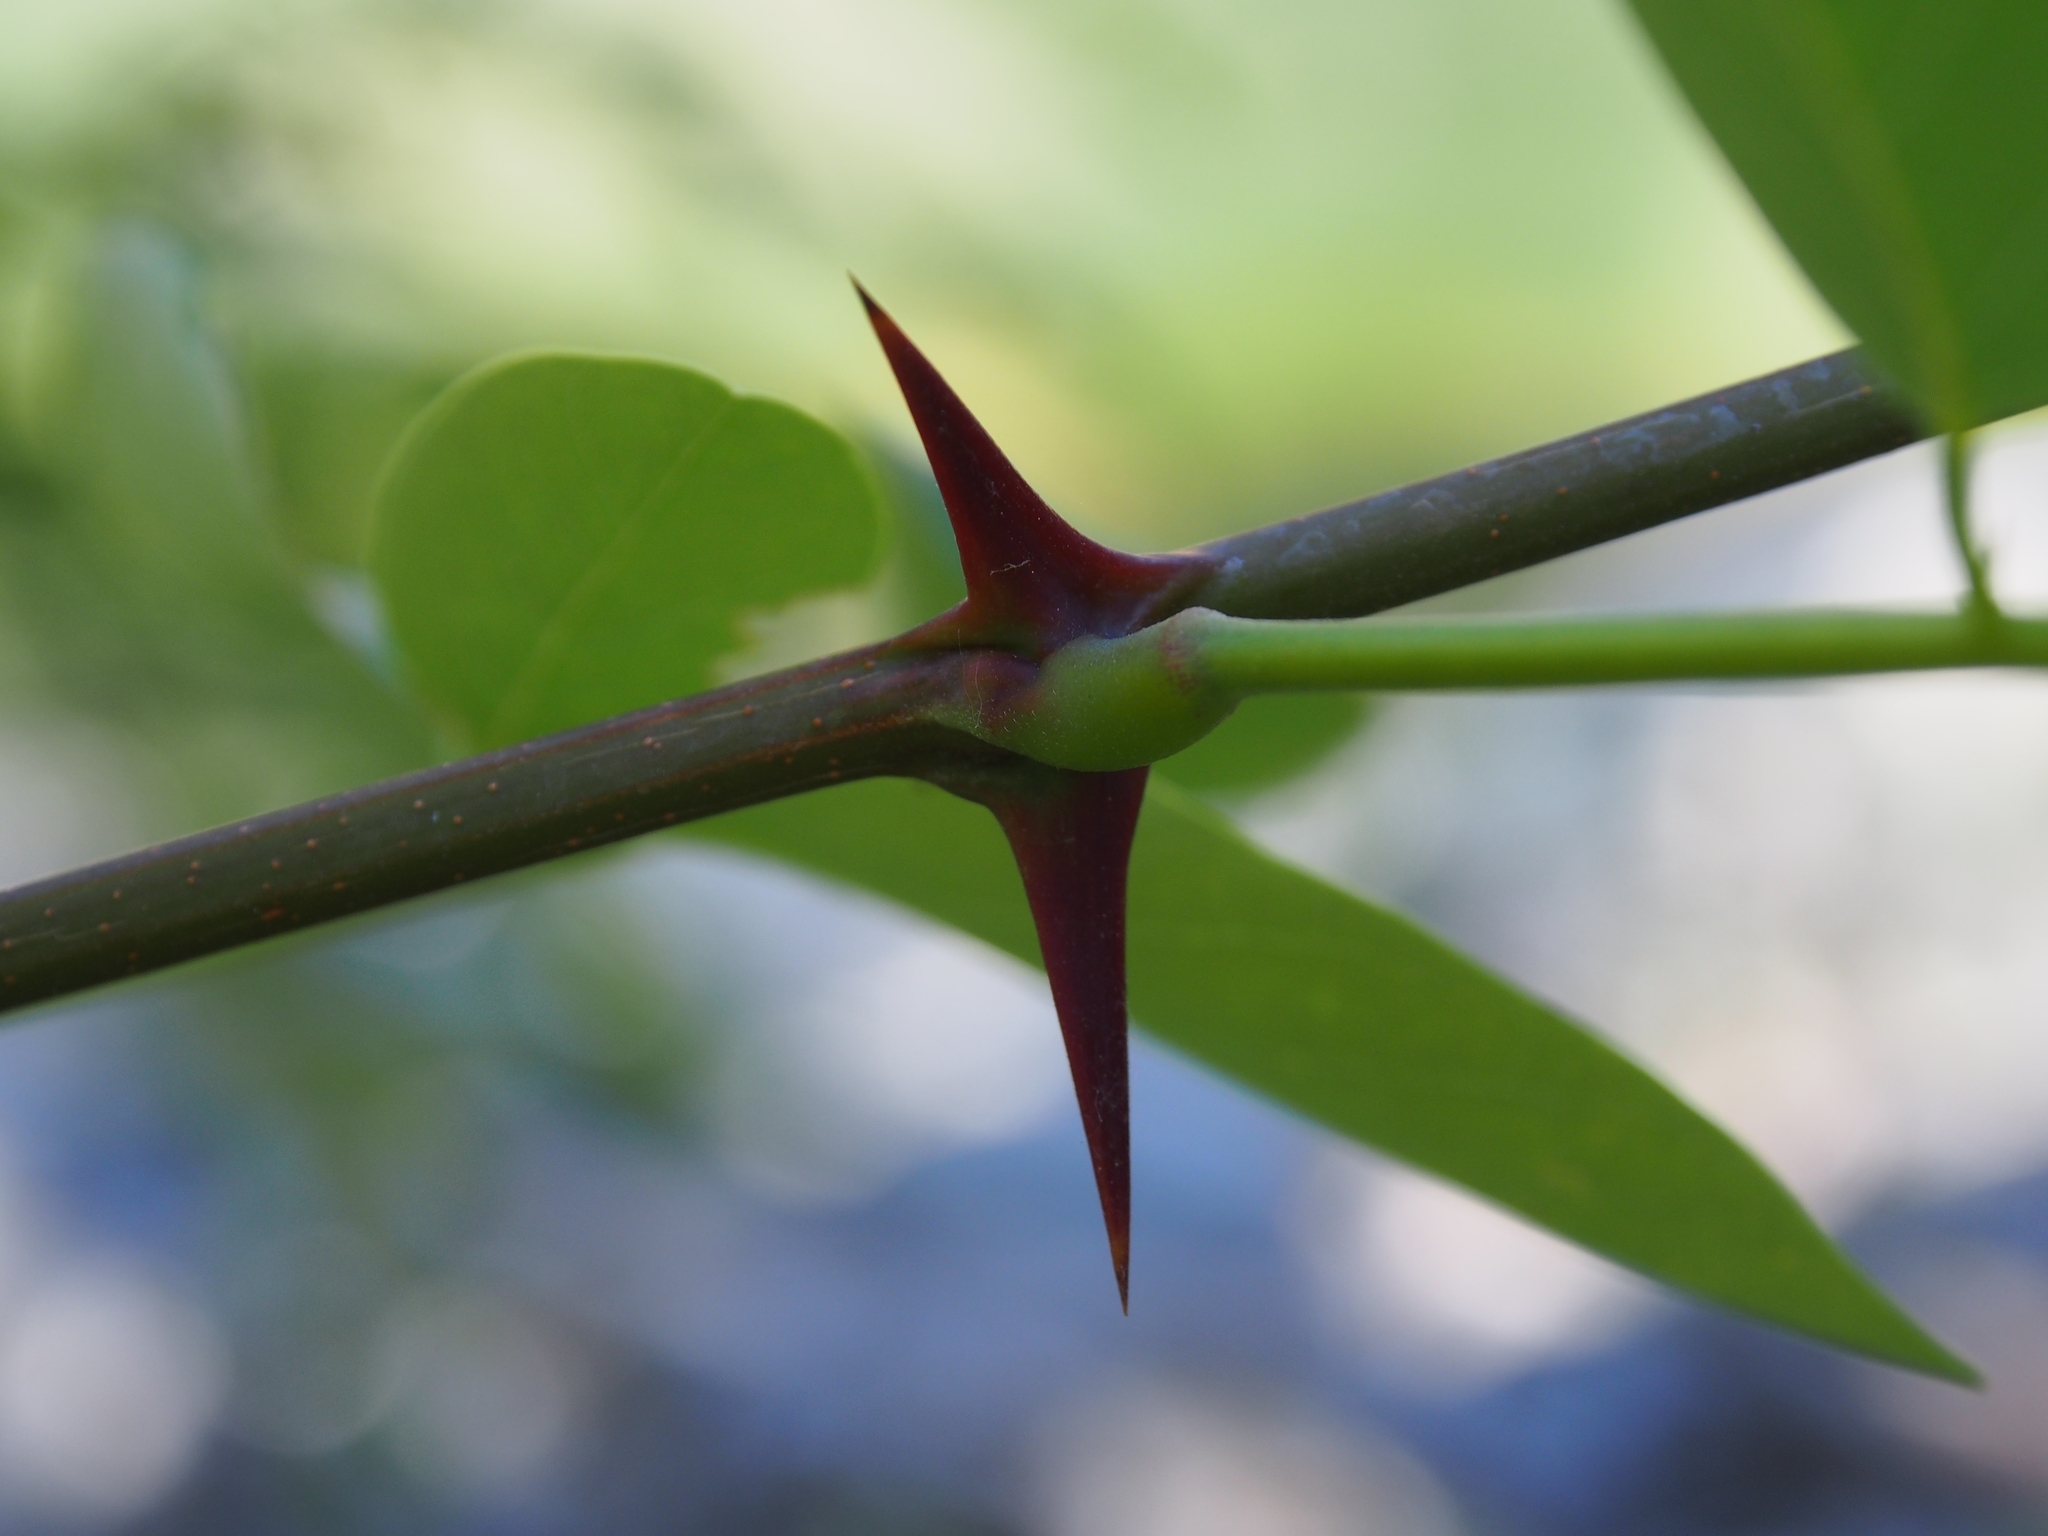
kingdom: Plantae
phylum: Tracheophyta
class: Magnoliopsida
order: Fabales
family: Fabaceae
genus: Robinia
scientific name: Robinia pseudoacacia
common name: Black locust
